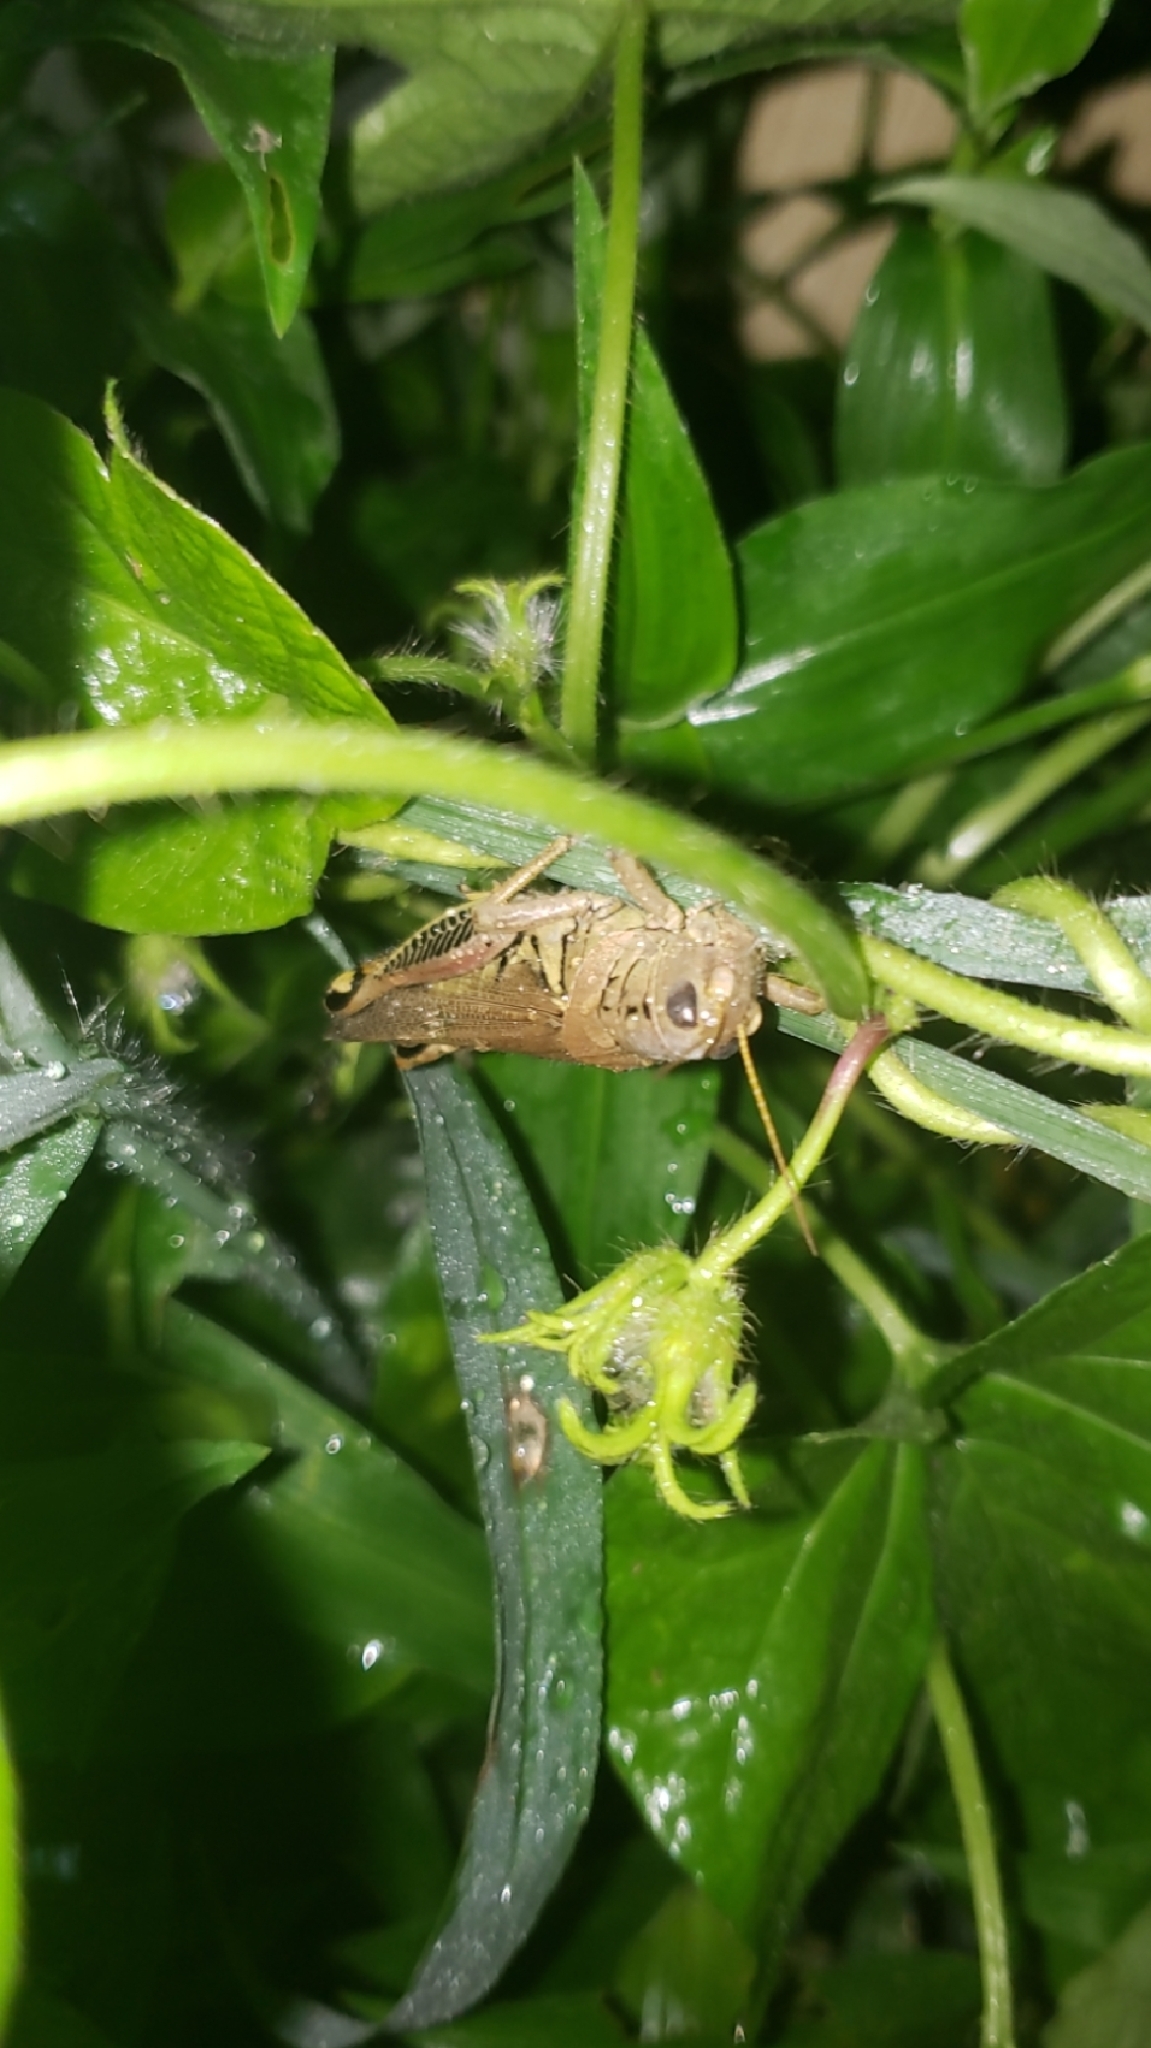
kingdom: Animalia
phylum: Arthropoda
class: Insecta
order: Orthoptera
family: Acrididae
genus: Melanoplus
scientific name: Melanoplus differentialis
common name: Differential grasshopper
